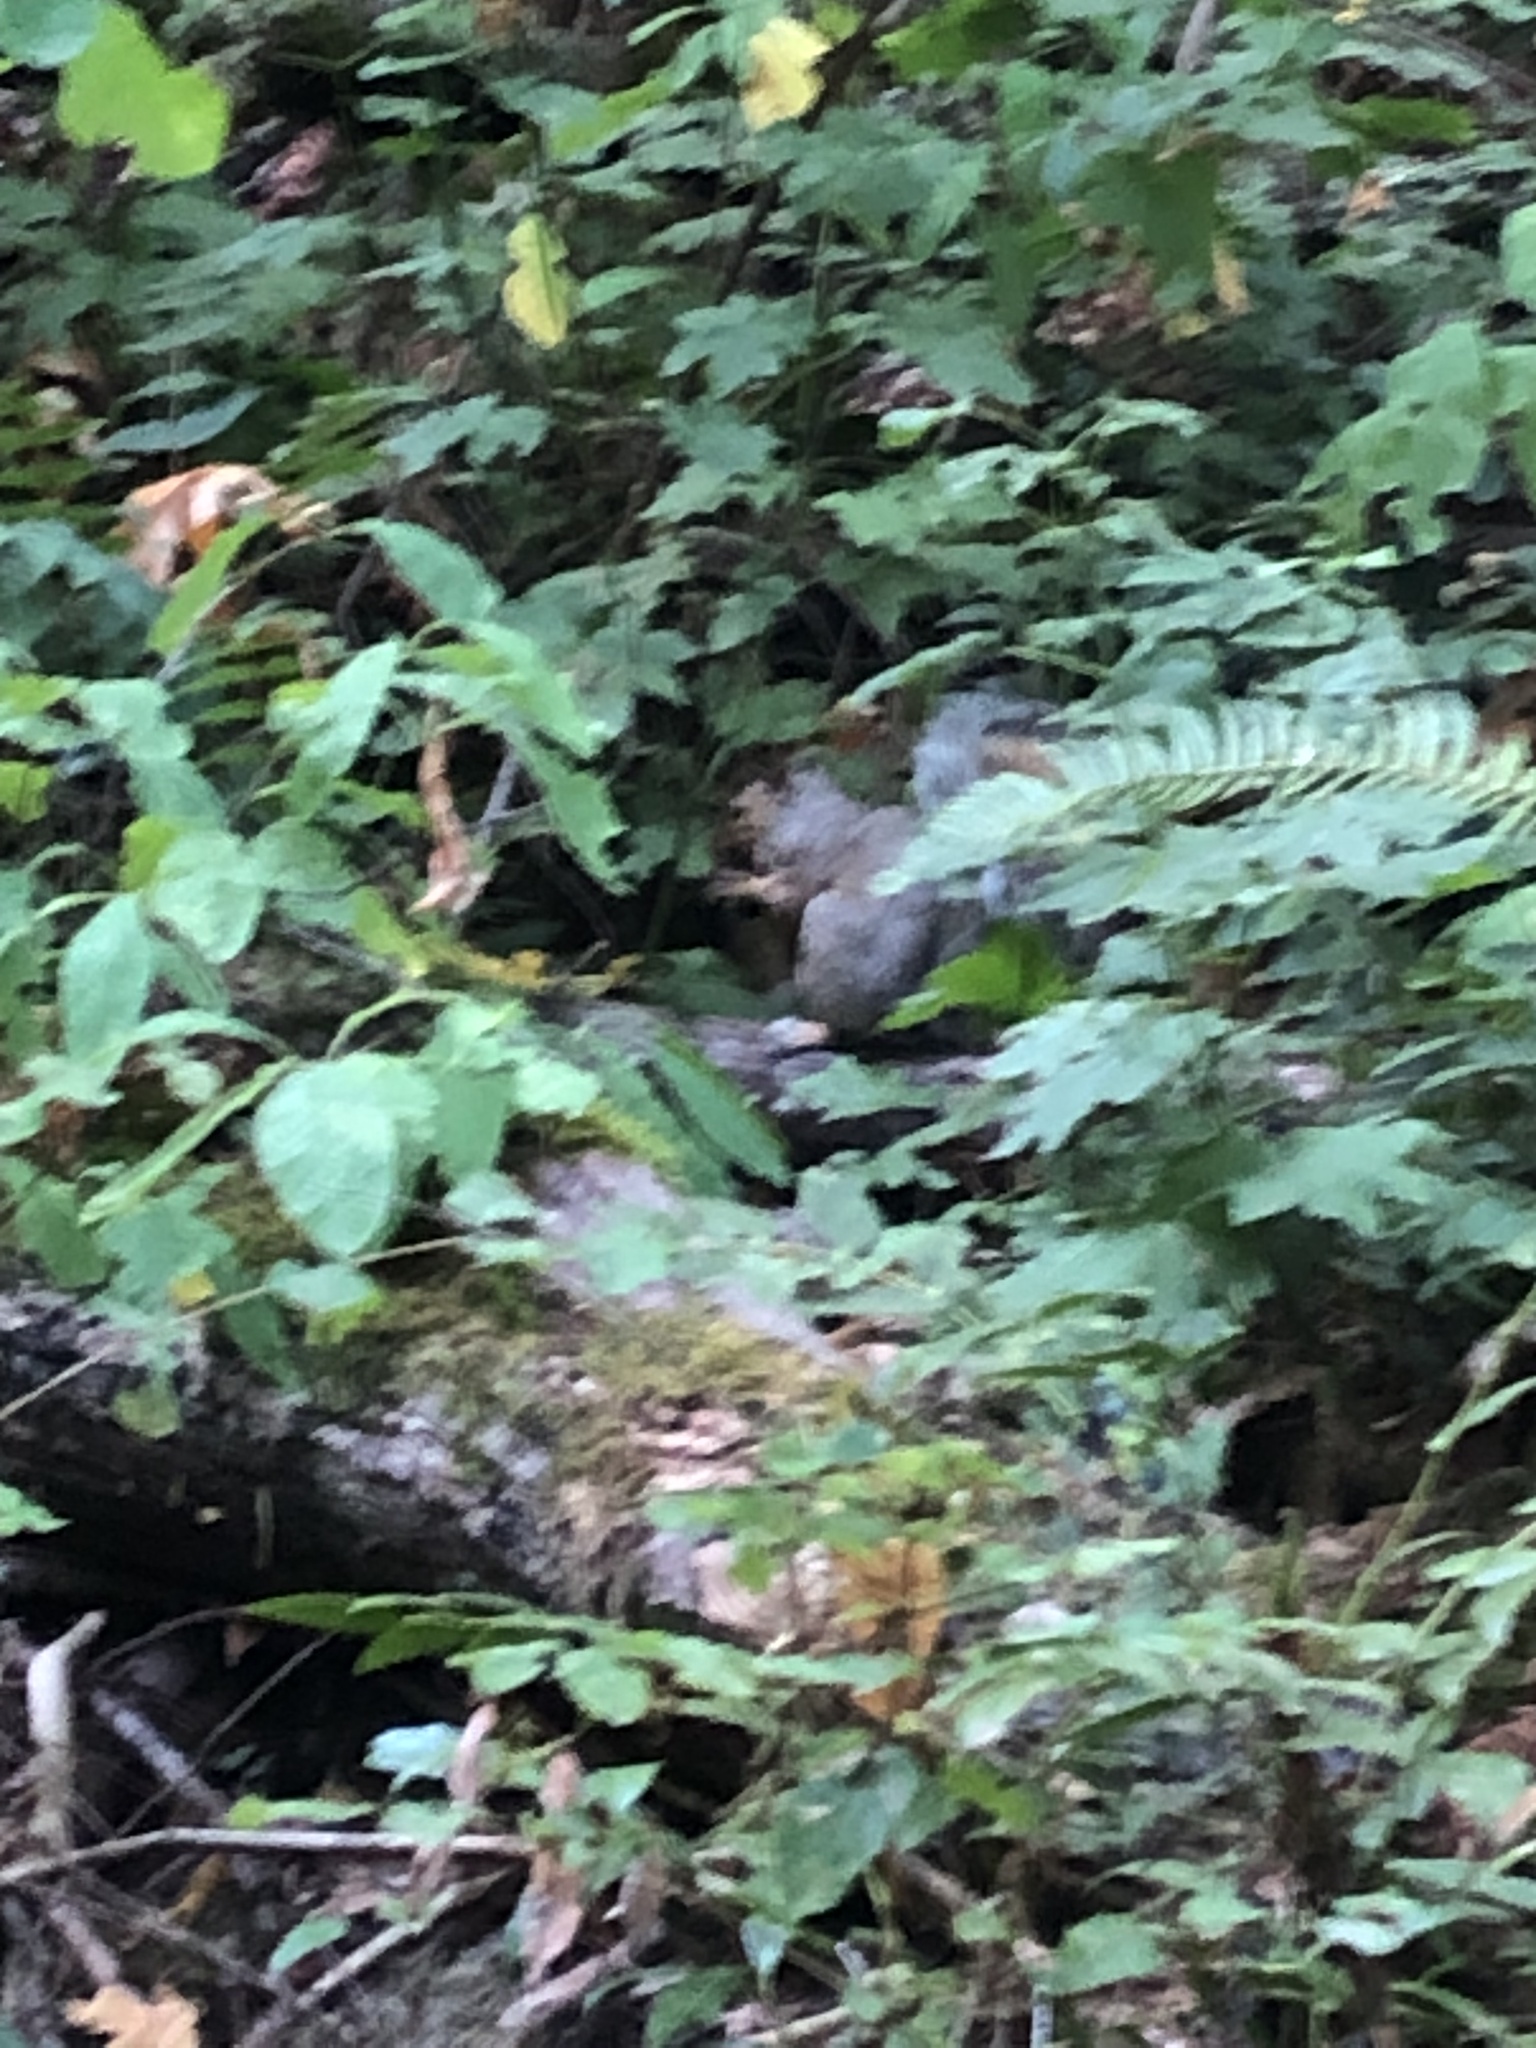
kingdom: Animalia
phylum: Chordata
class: Mammalia
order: Rodentia
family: Sciuridae
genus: Sciurus
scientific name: Sciurus carolinensis
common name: Eastern gray squirrel
